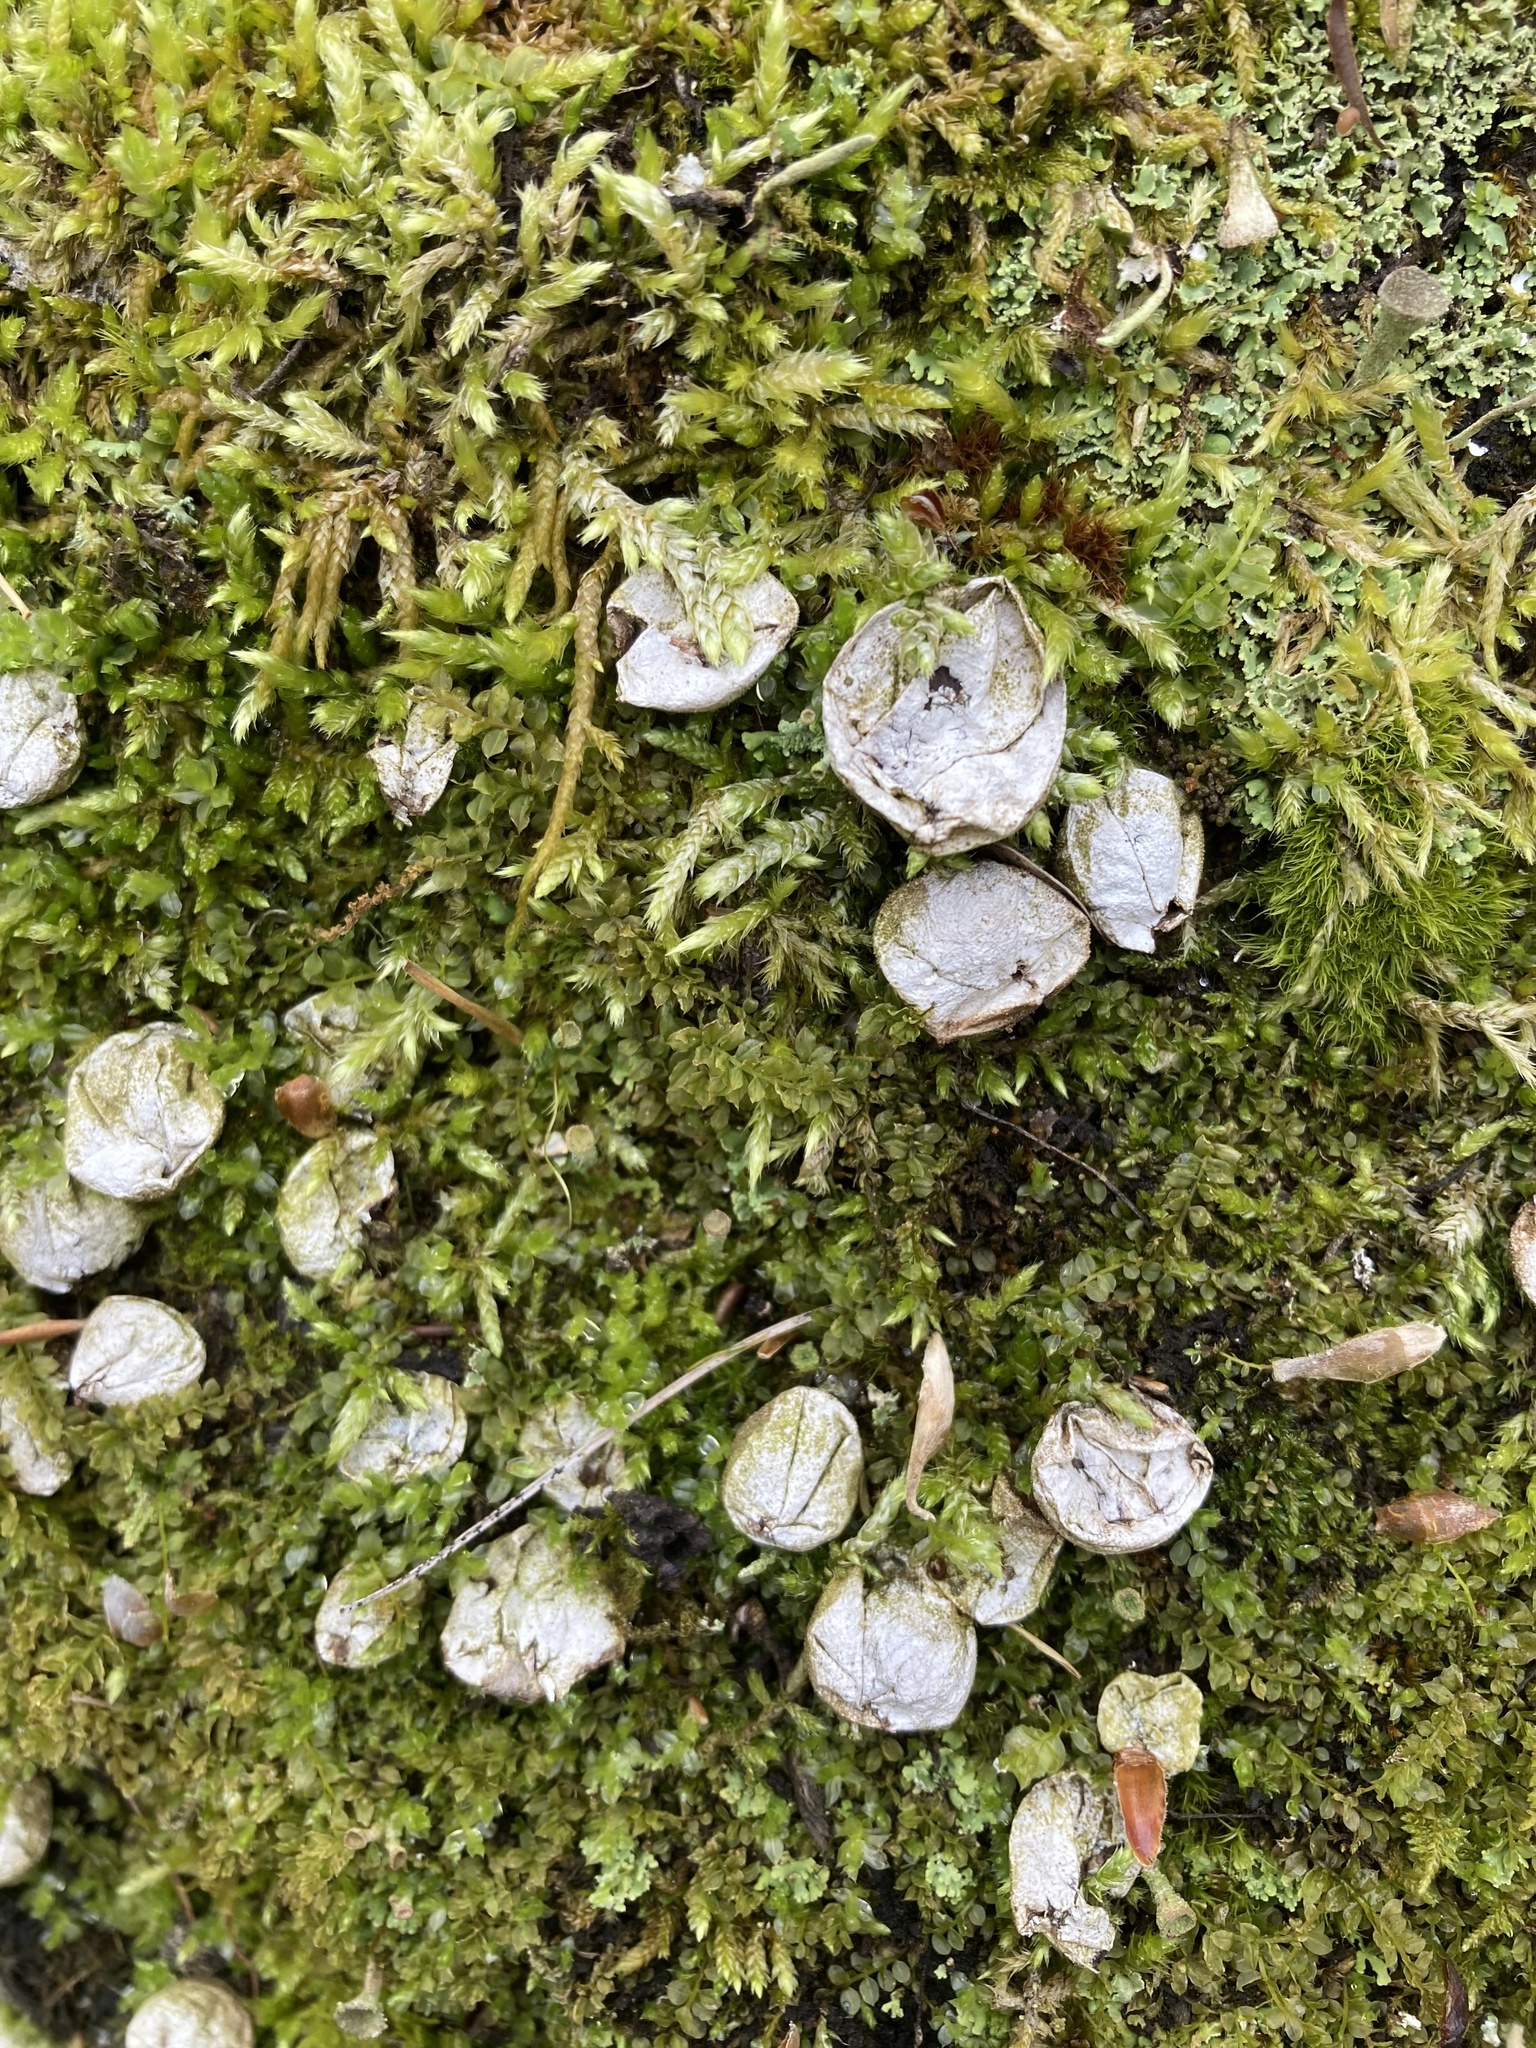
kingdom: Fungi
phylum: Basidiomycota
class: Agaricomycetes
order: Agaricales
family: Lycoperdaceae
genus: Apioperdon
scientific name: Apioperdon pyriforme
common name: Pear-shaped puffball
